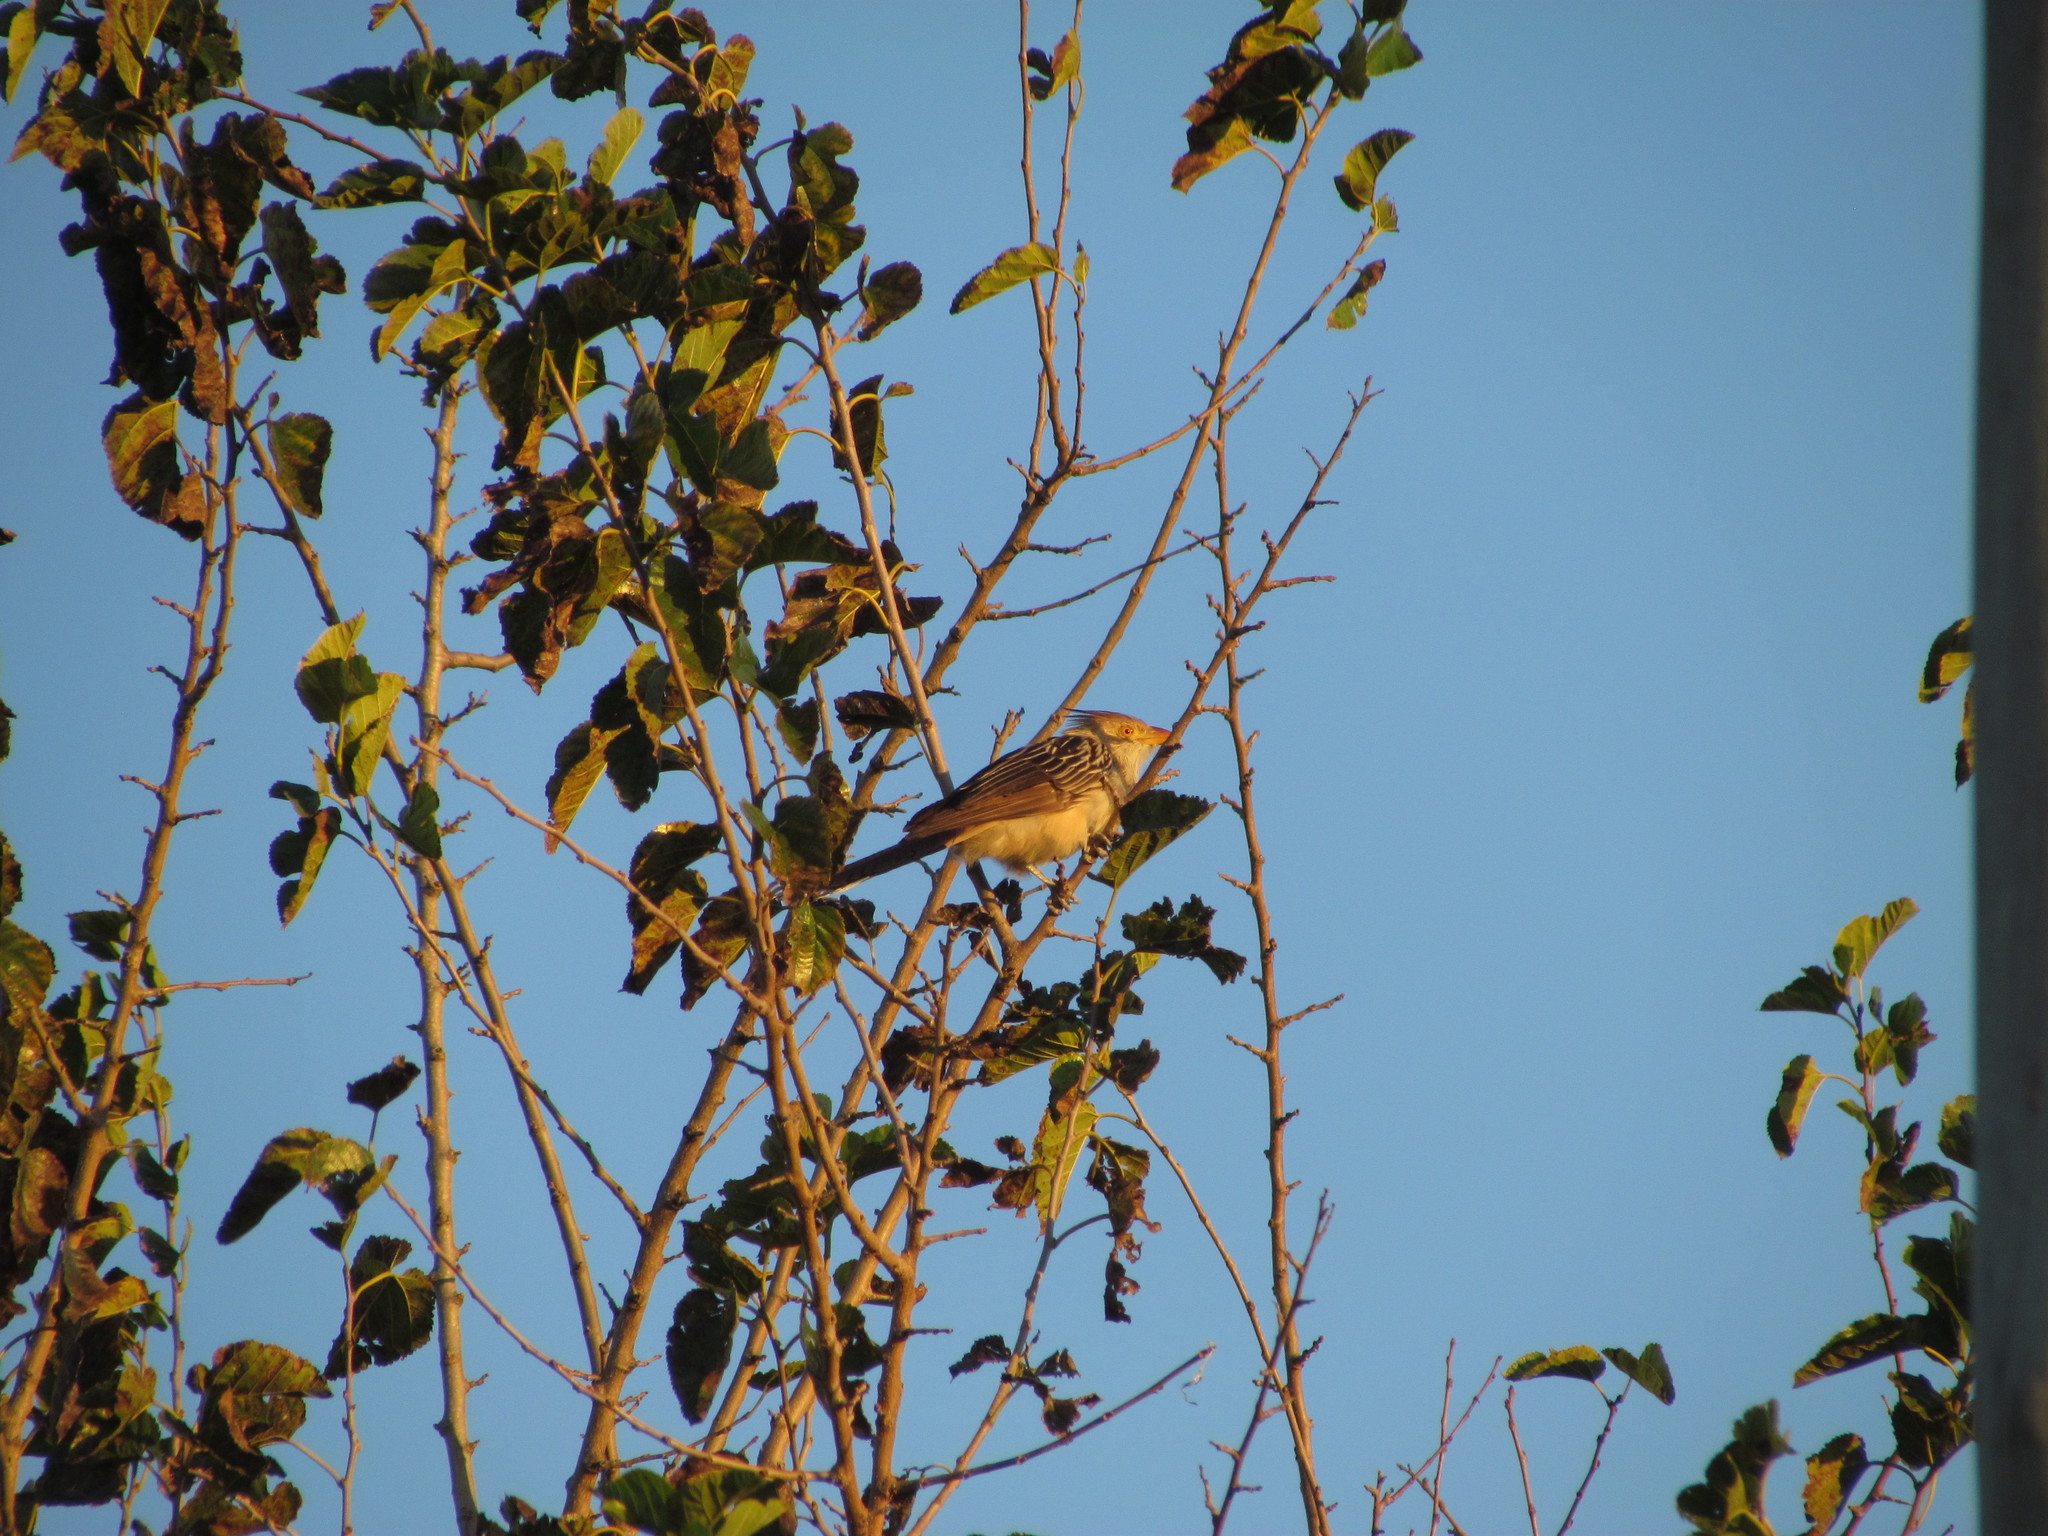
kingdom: Animalia
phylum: Chordata
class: Aves
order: Cuculiformes
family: Cuculidae
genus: Guira
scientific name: Guira guira
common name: Guira cuckoo
